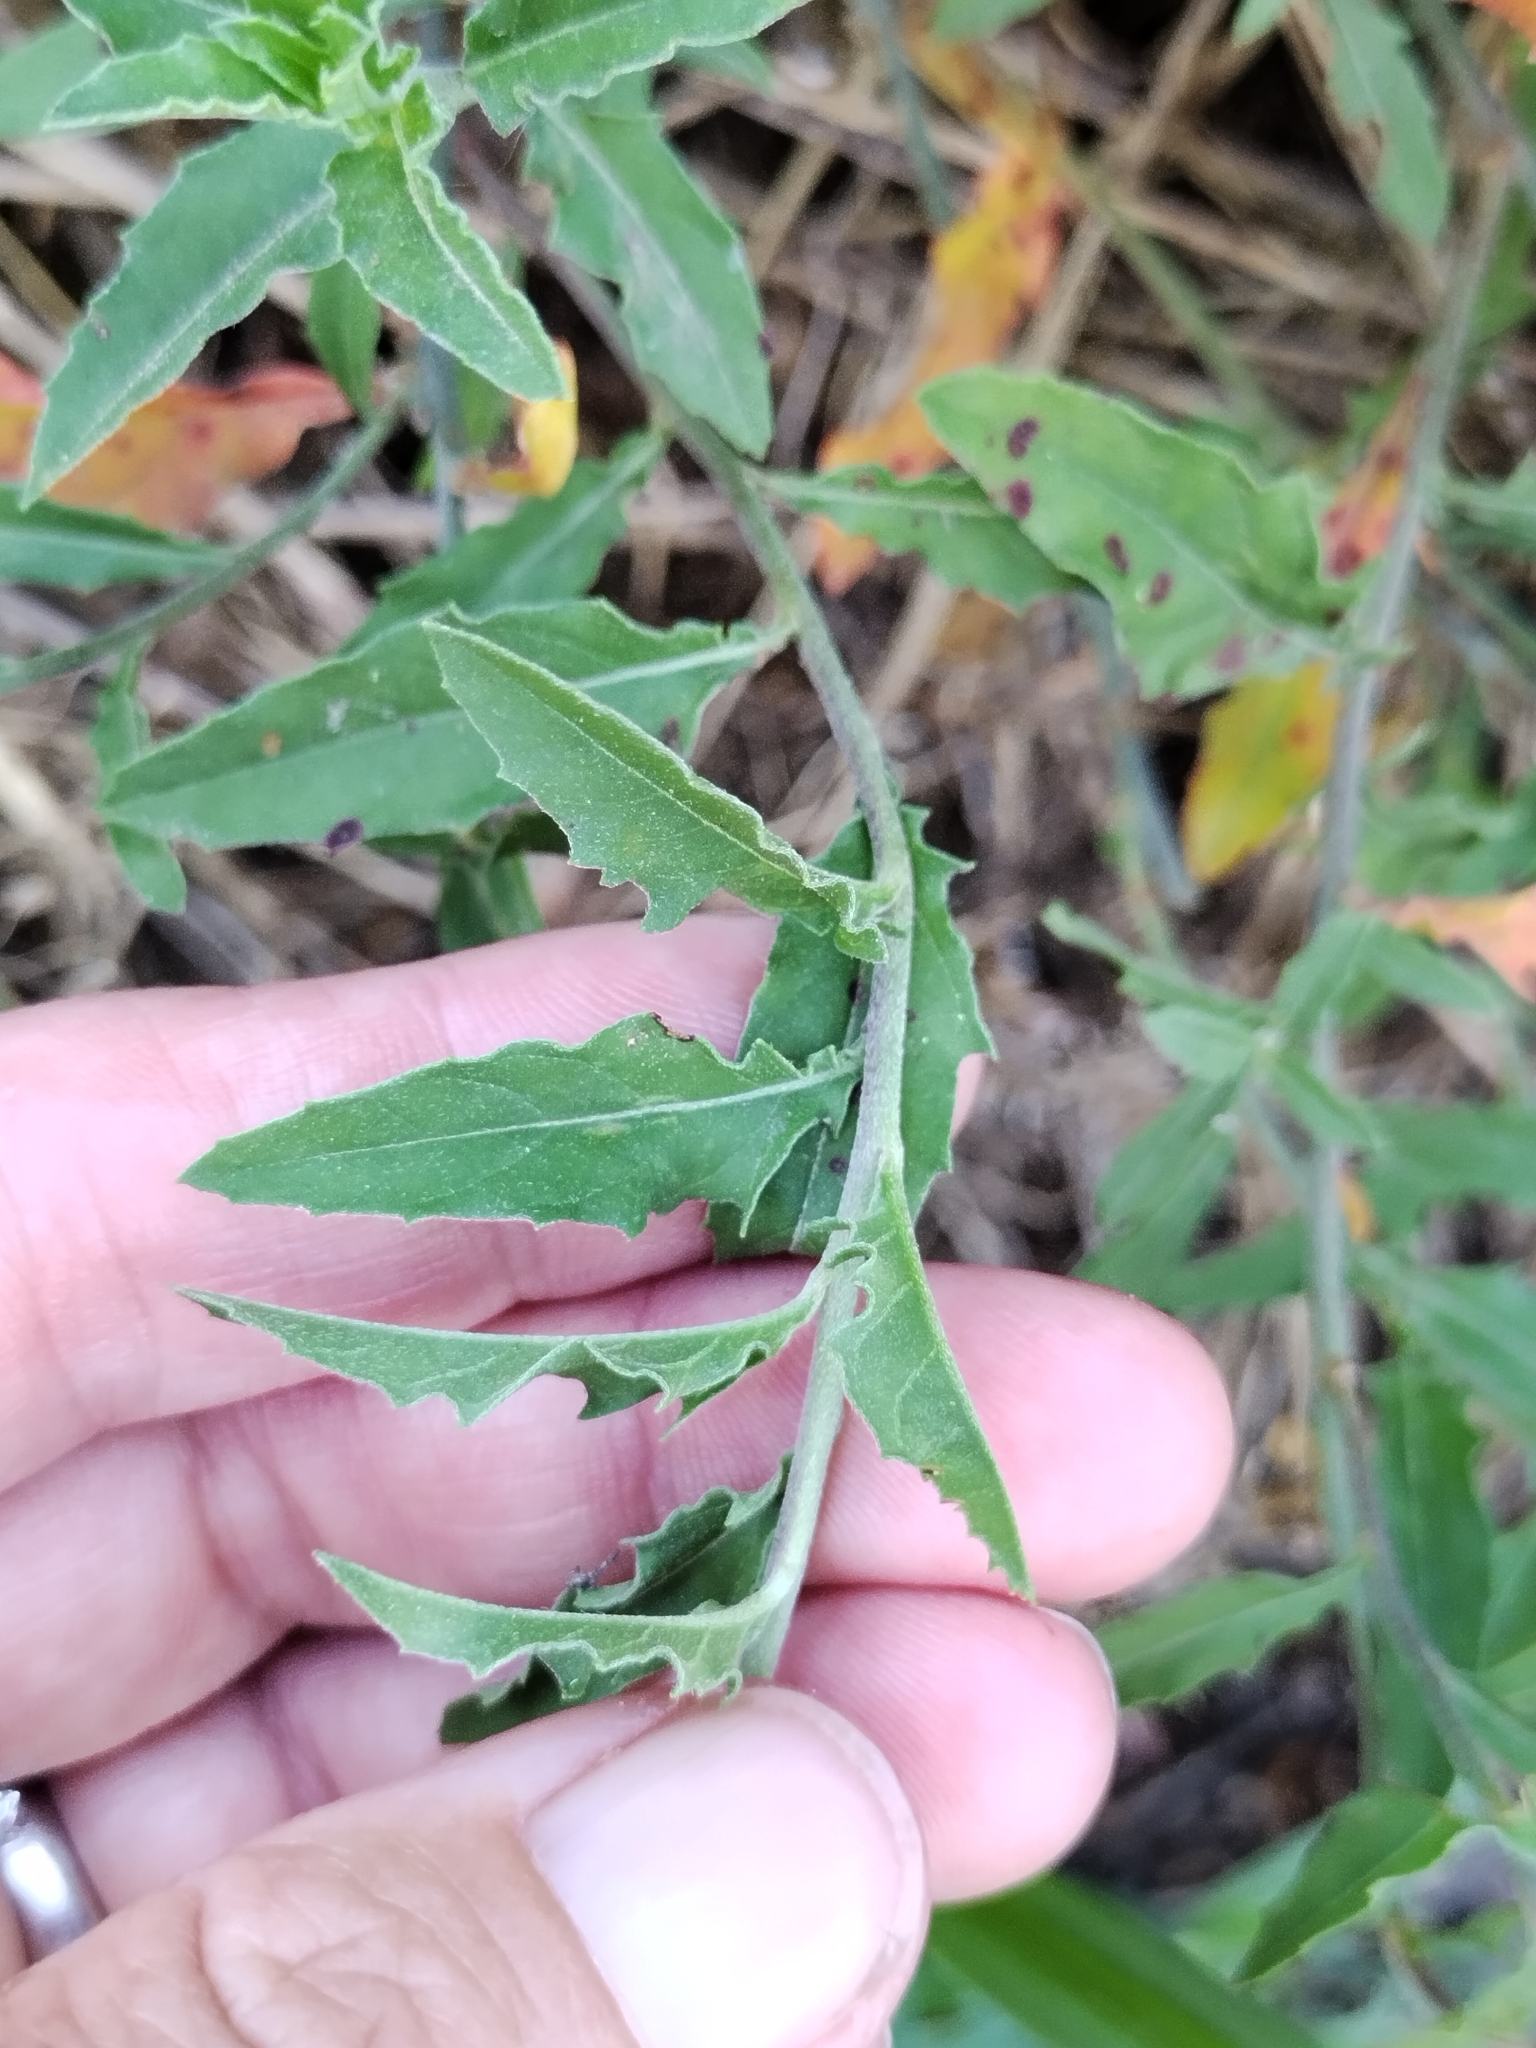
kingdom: Plantae
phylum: Tracheophyta
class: Magnoliopsida
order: Myrtales
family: Onagraceae
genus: Oenothera
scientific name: Oenothera speciosa
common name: White evening-primrose
